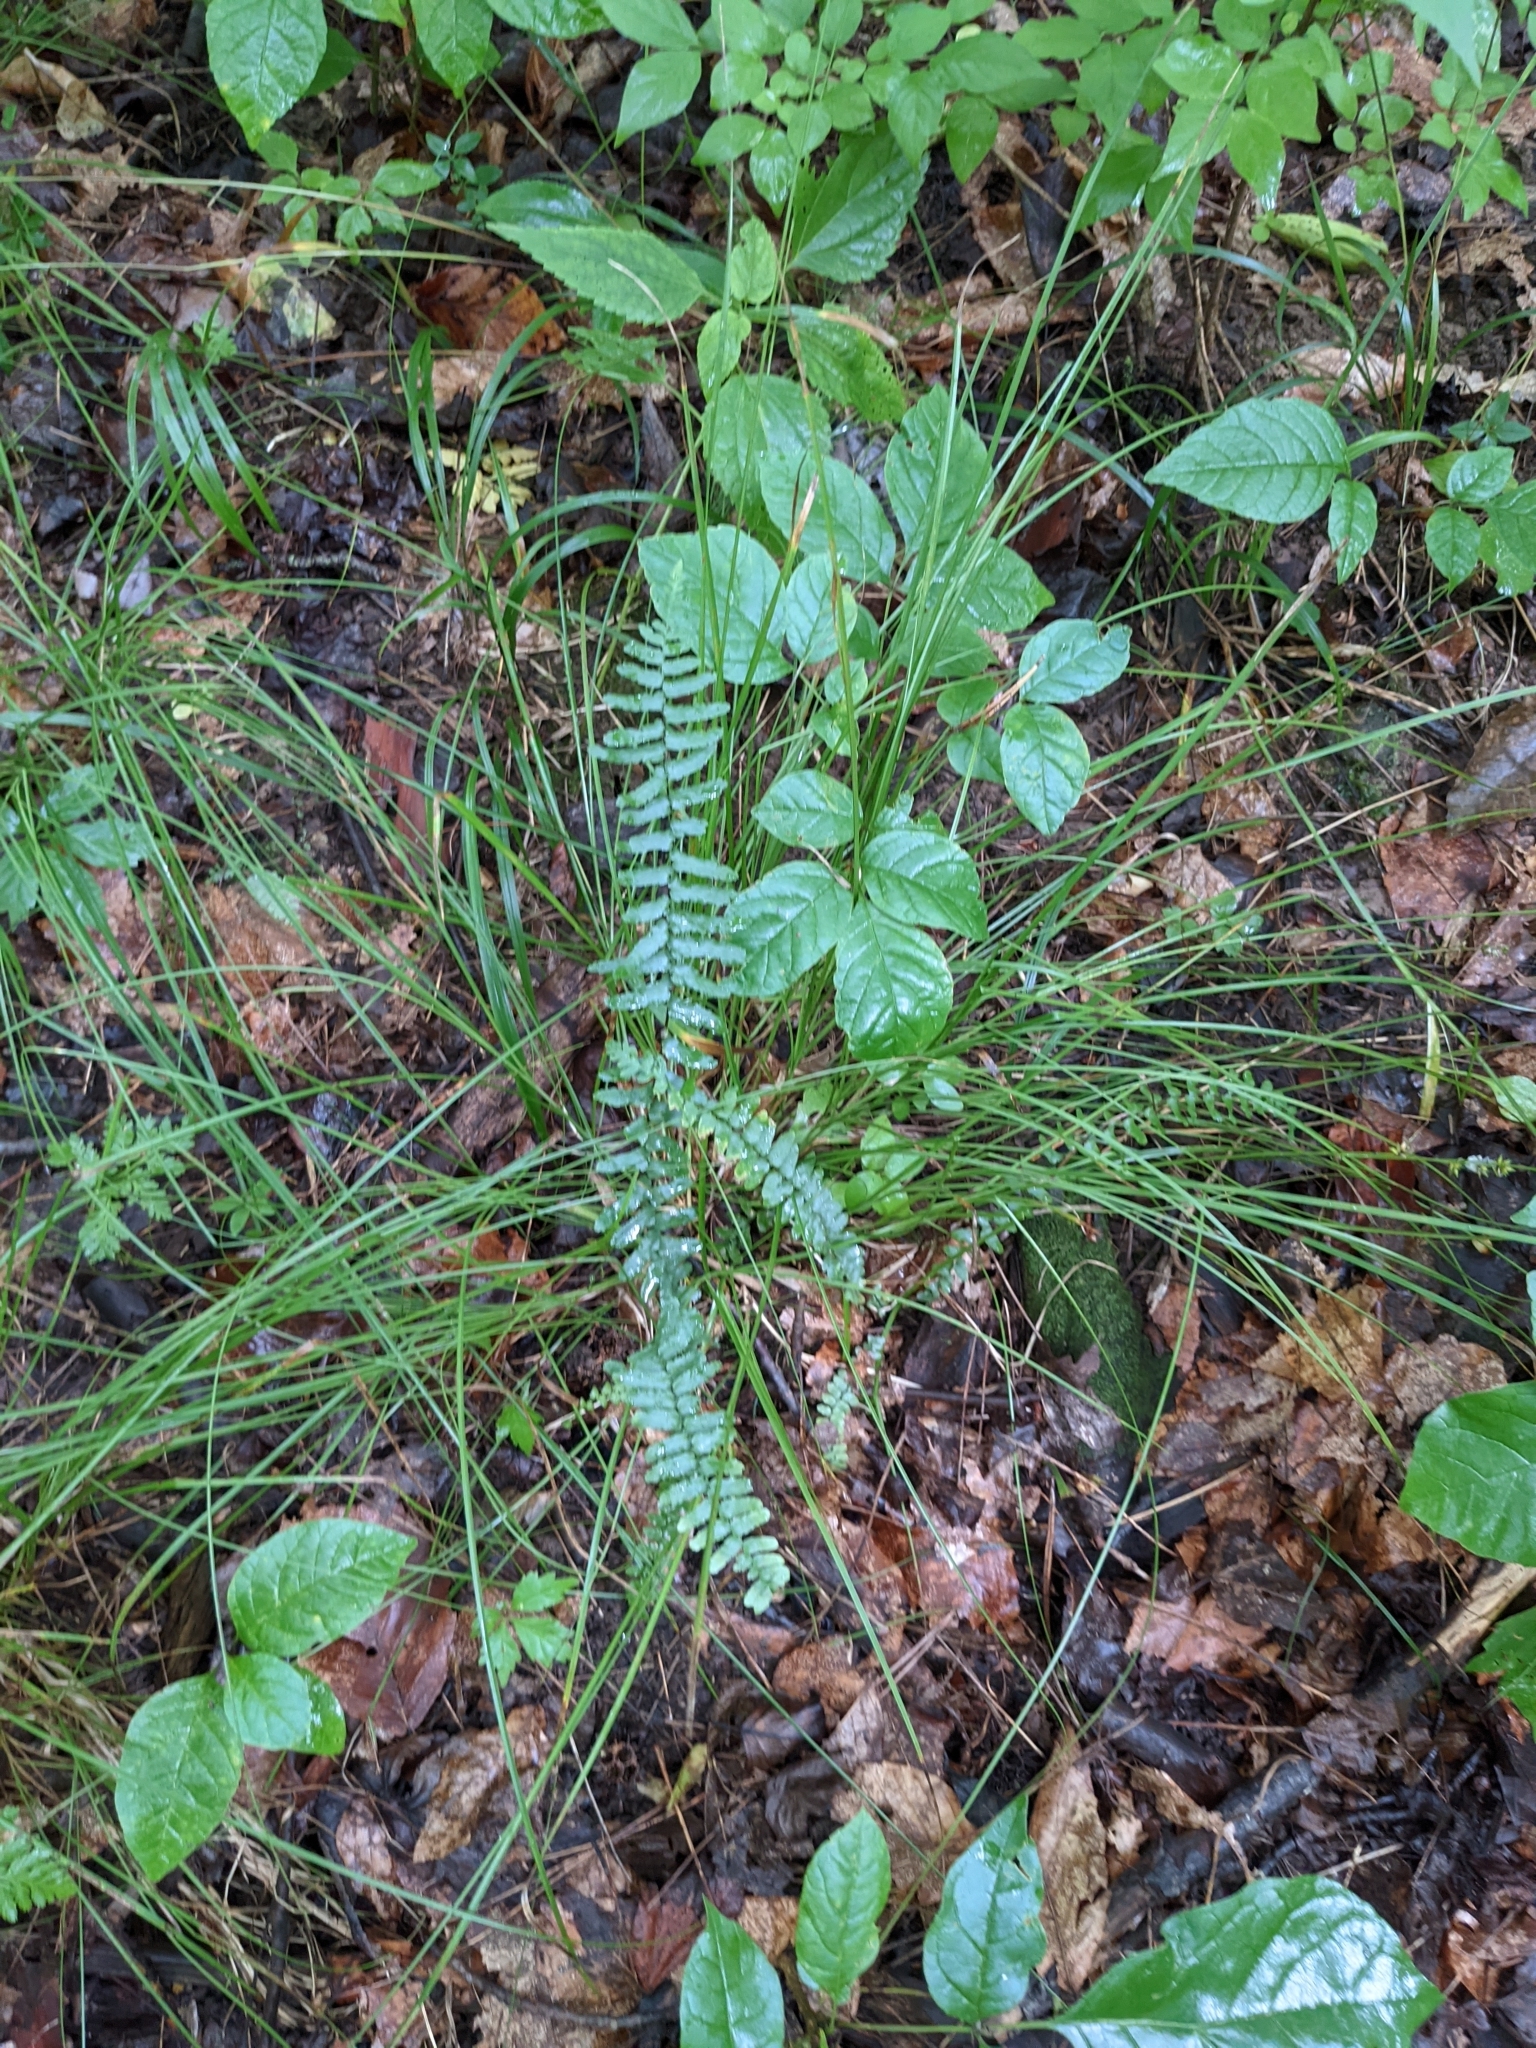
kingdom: Plantae
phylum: Tracheophyta
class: Polypodiopsida
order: Polypodiales
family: Aspleniaceae
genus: Asplenium
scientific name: Asplenium platyneuron
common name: Ebony spleenwort
